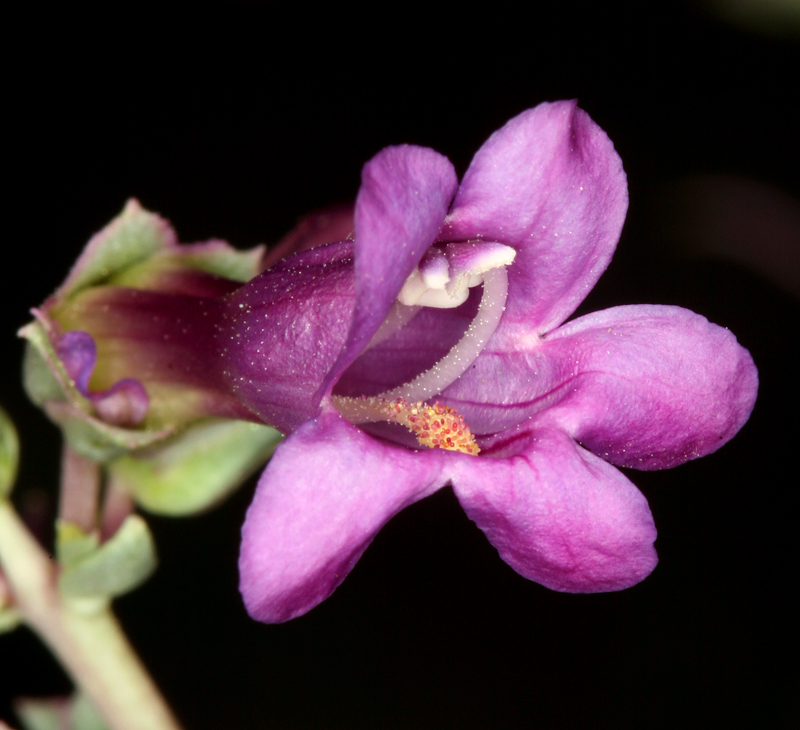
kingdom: Plantae
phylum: Tracheophyta
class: Magnoliopsida
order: Lamiales
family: Plantaginaceae
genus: Penstemon
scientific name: Penstemon patens
